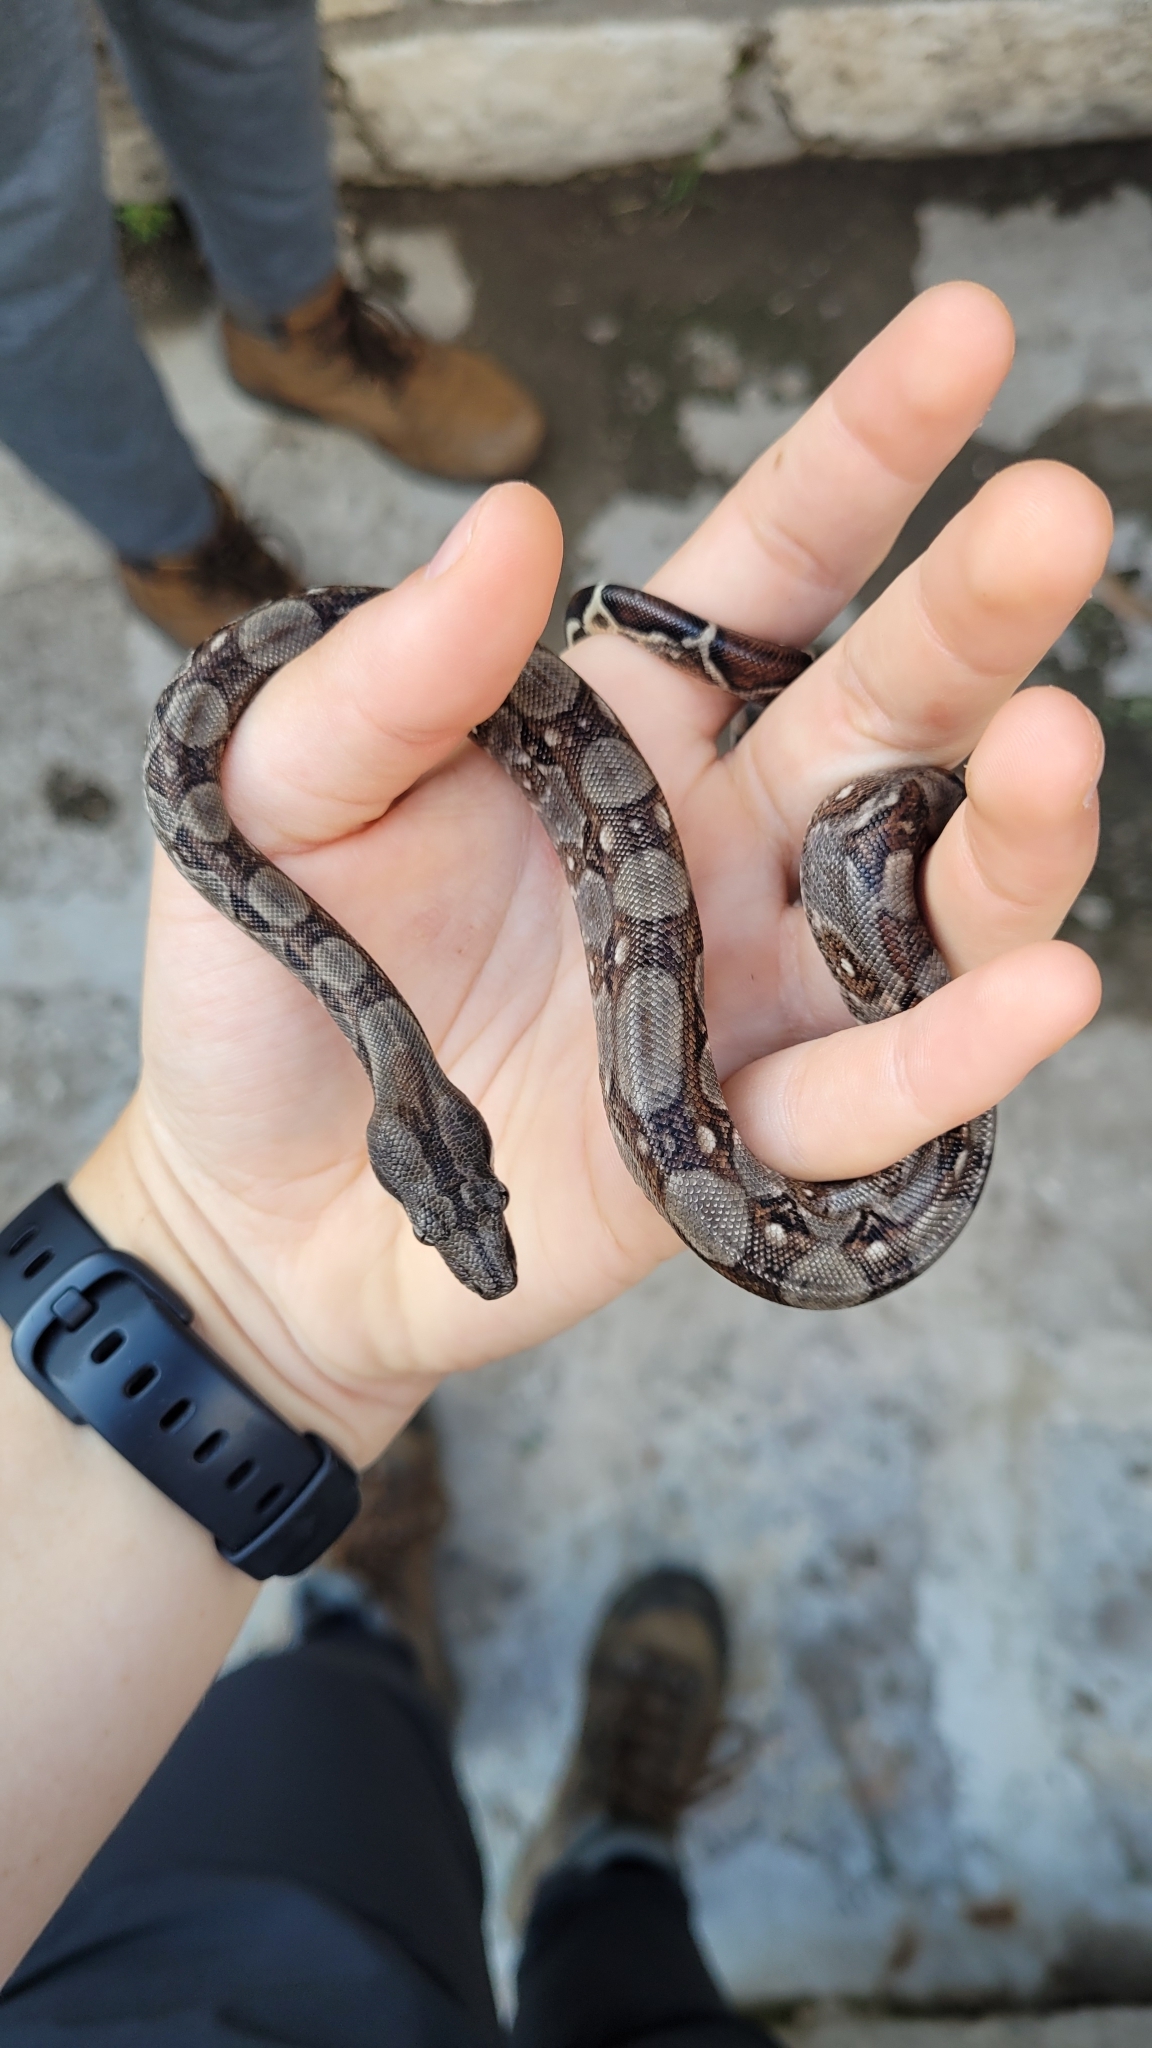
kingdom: Animalia
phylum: Chordata
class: Squamata
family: Boidae
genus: Boa
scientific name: Boa imperator
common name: Central american boa
